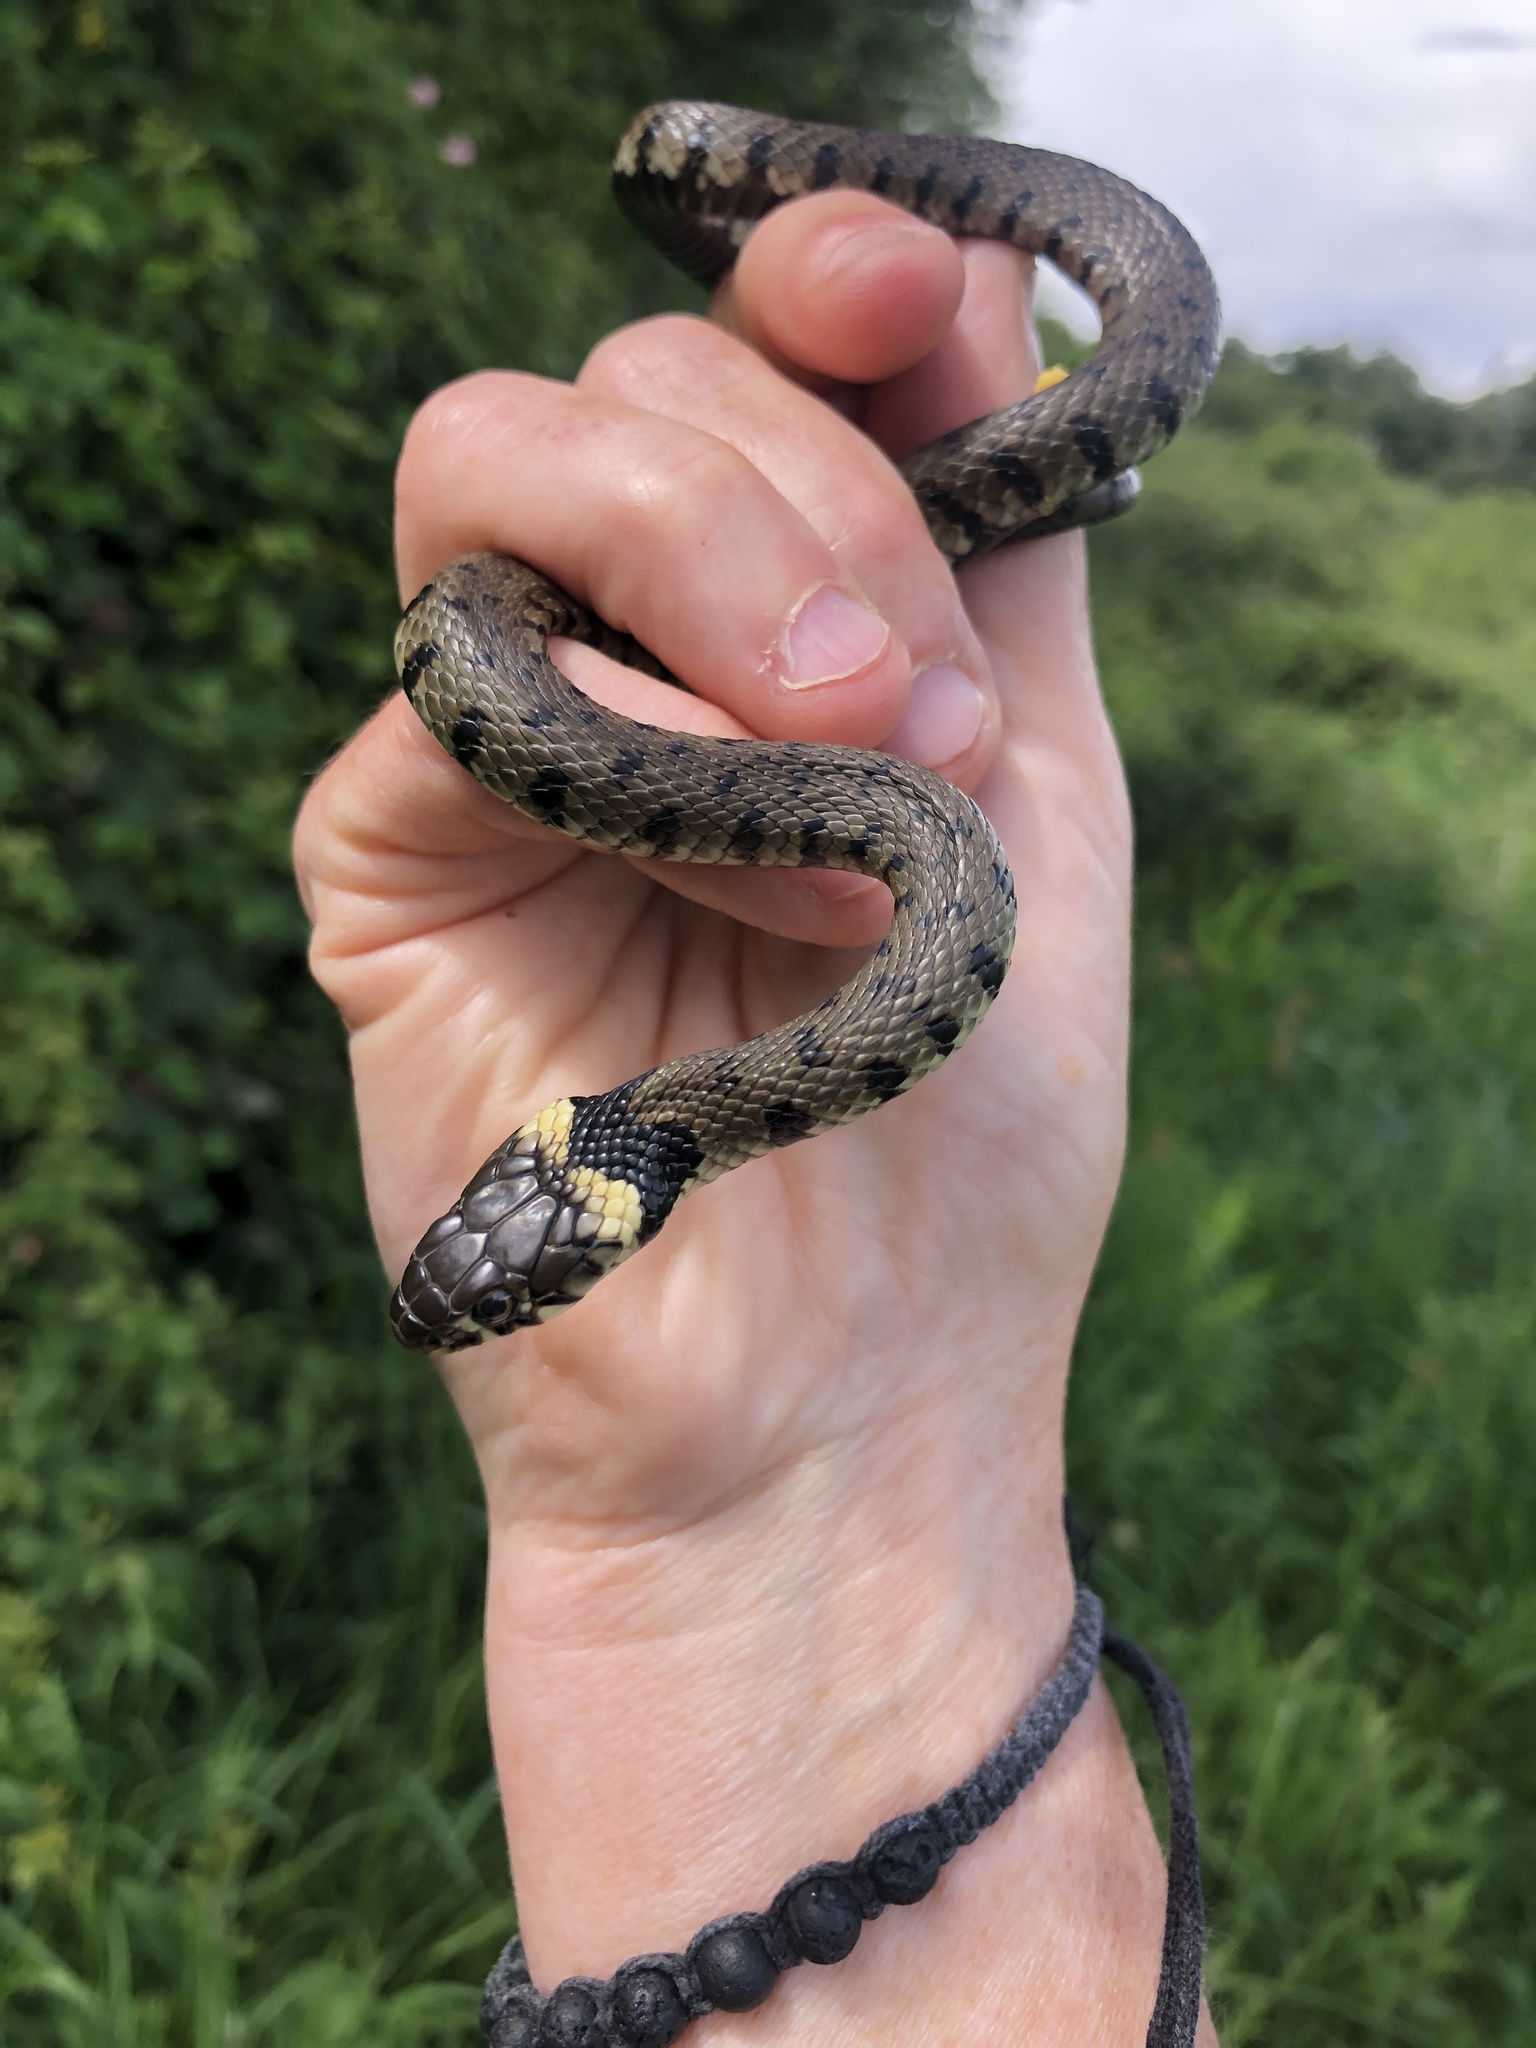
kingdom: Animalia
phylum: Chordata
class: Squamata
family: Colubridae
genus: Natrix
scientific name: Natrix helvetica
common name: Banded grass snake
